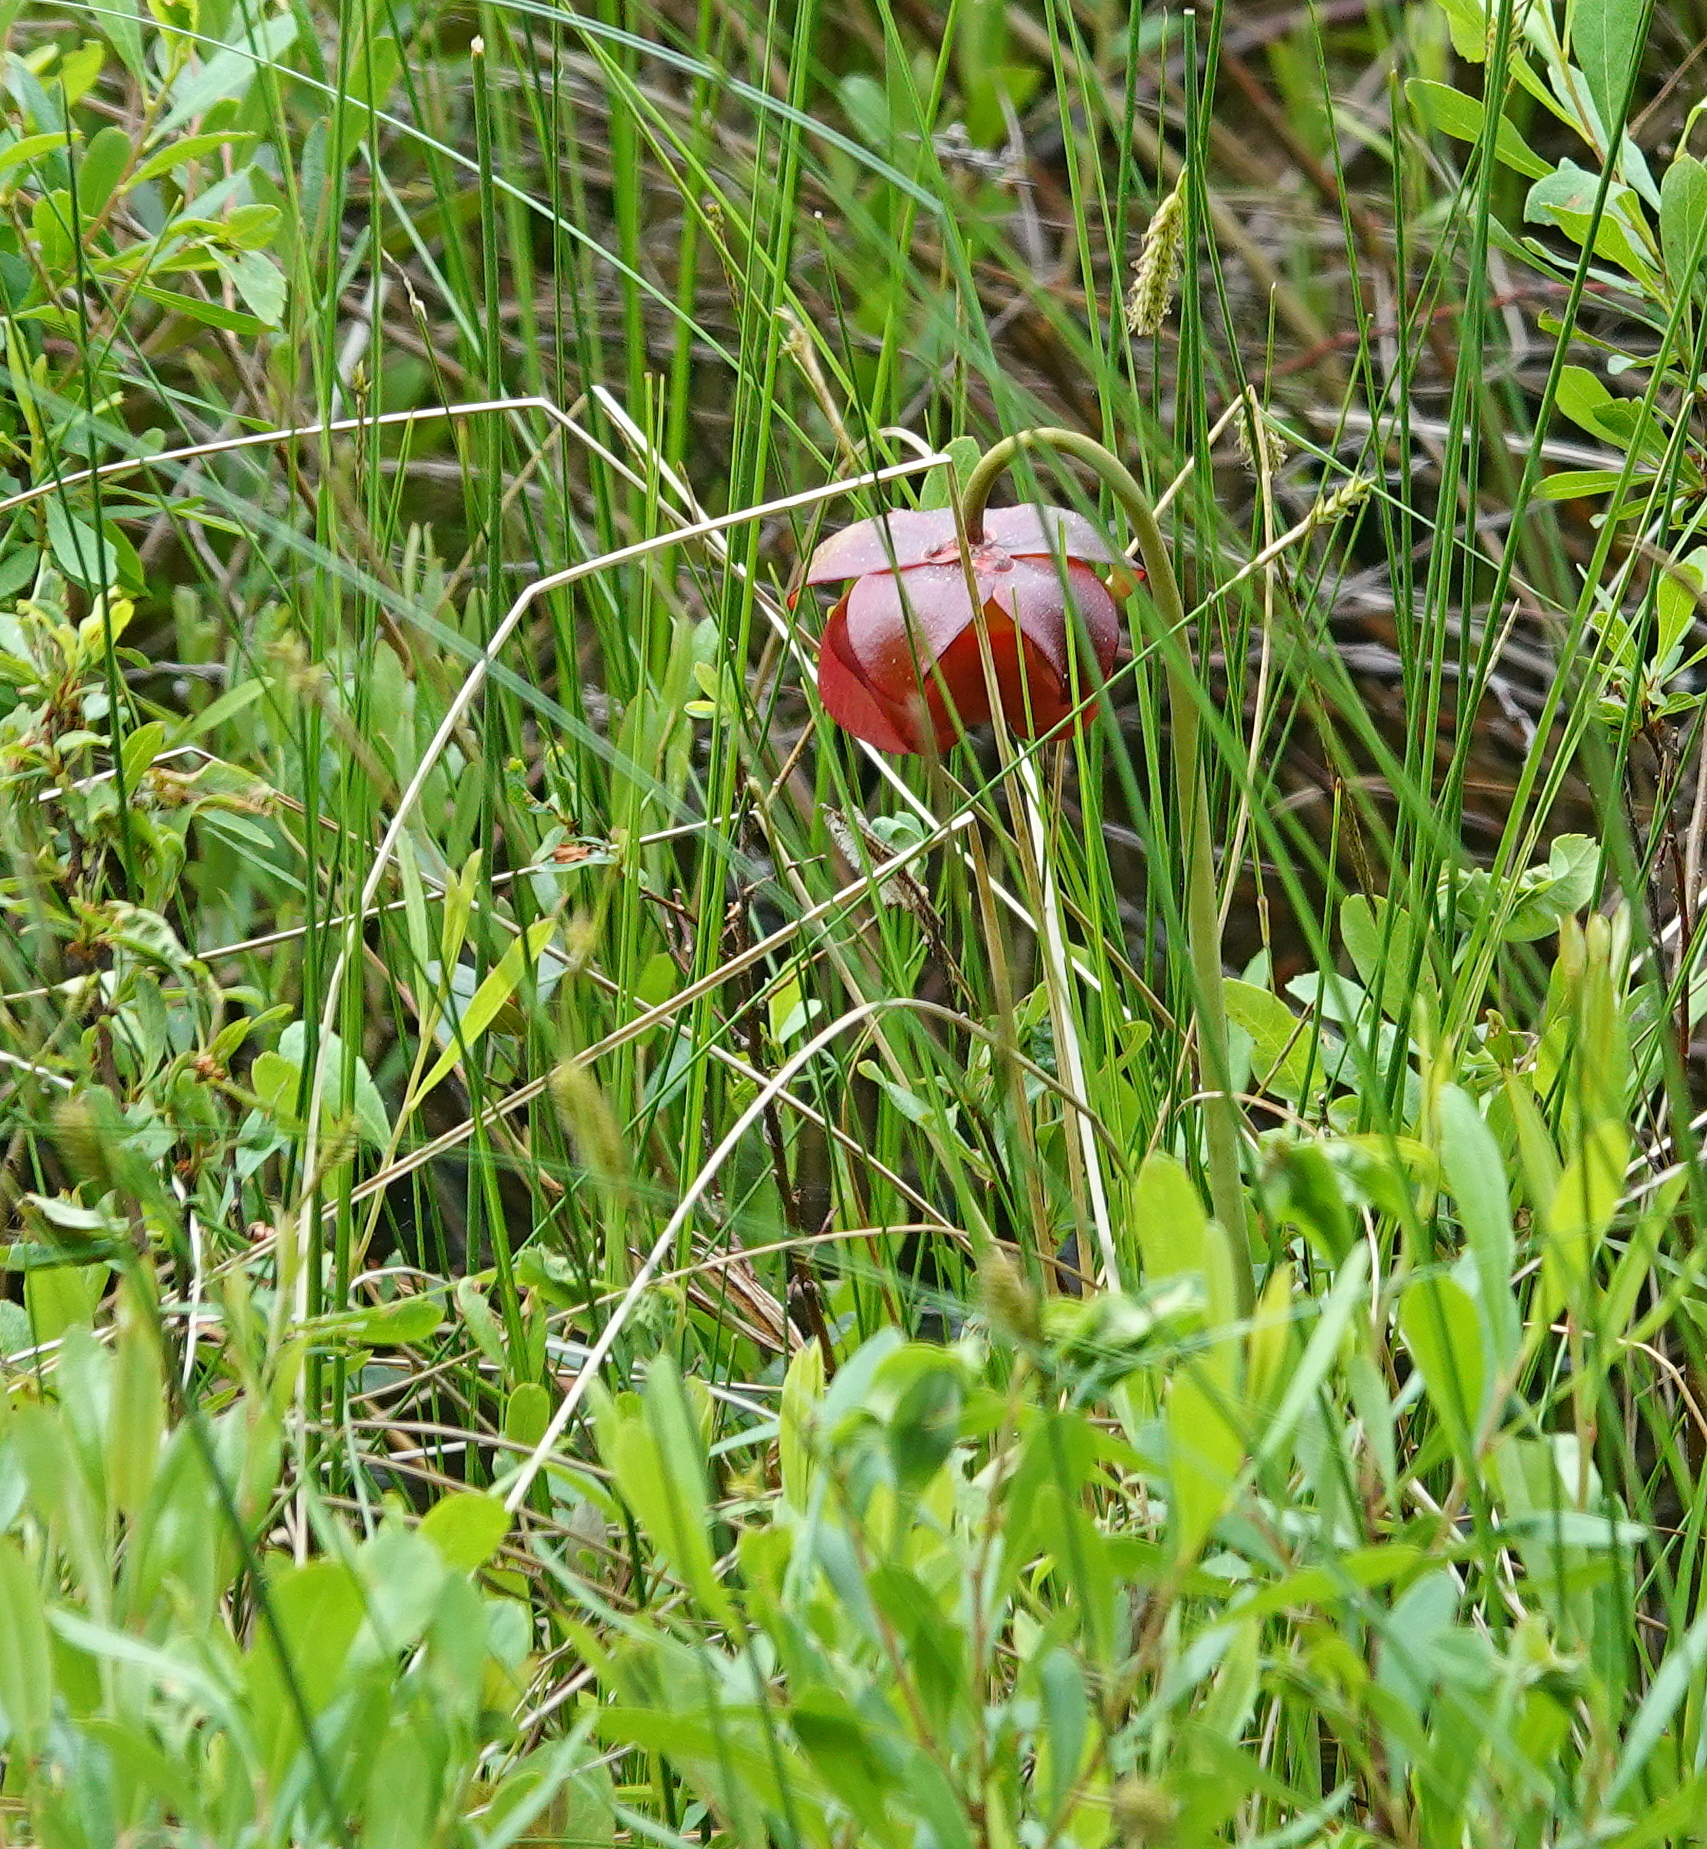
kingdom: Plantae
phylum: Tracheophyta
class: Magnoliopsida
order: Ericales
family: Sarraceniaceae
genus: Sarracenia
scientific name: Sarracenia purpurea
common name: Pitcherplant
